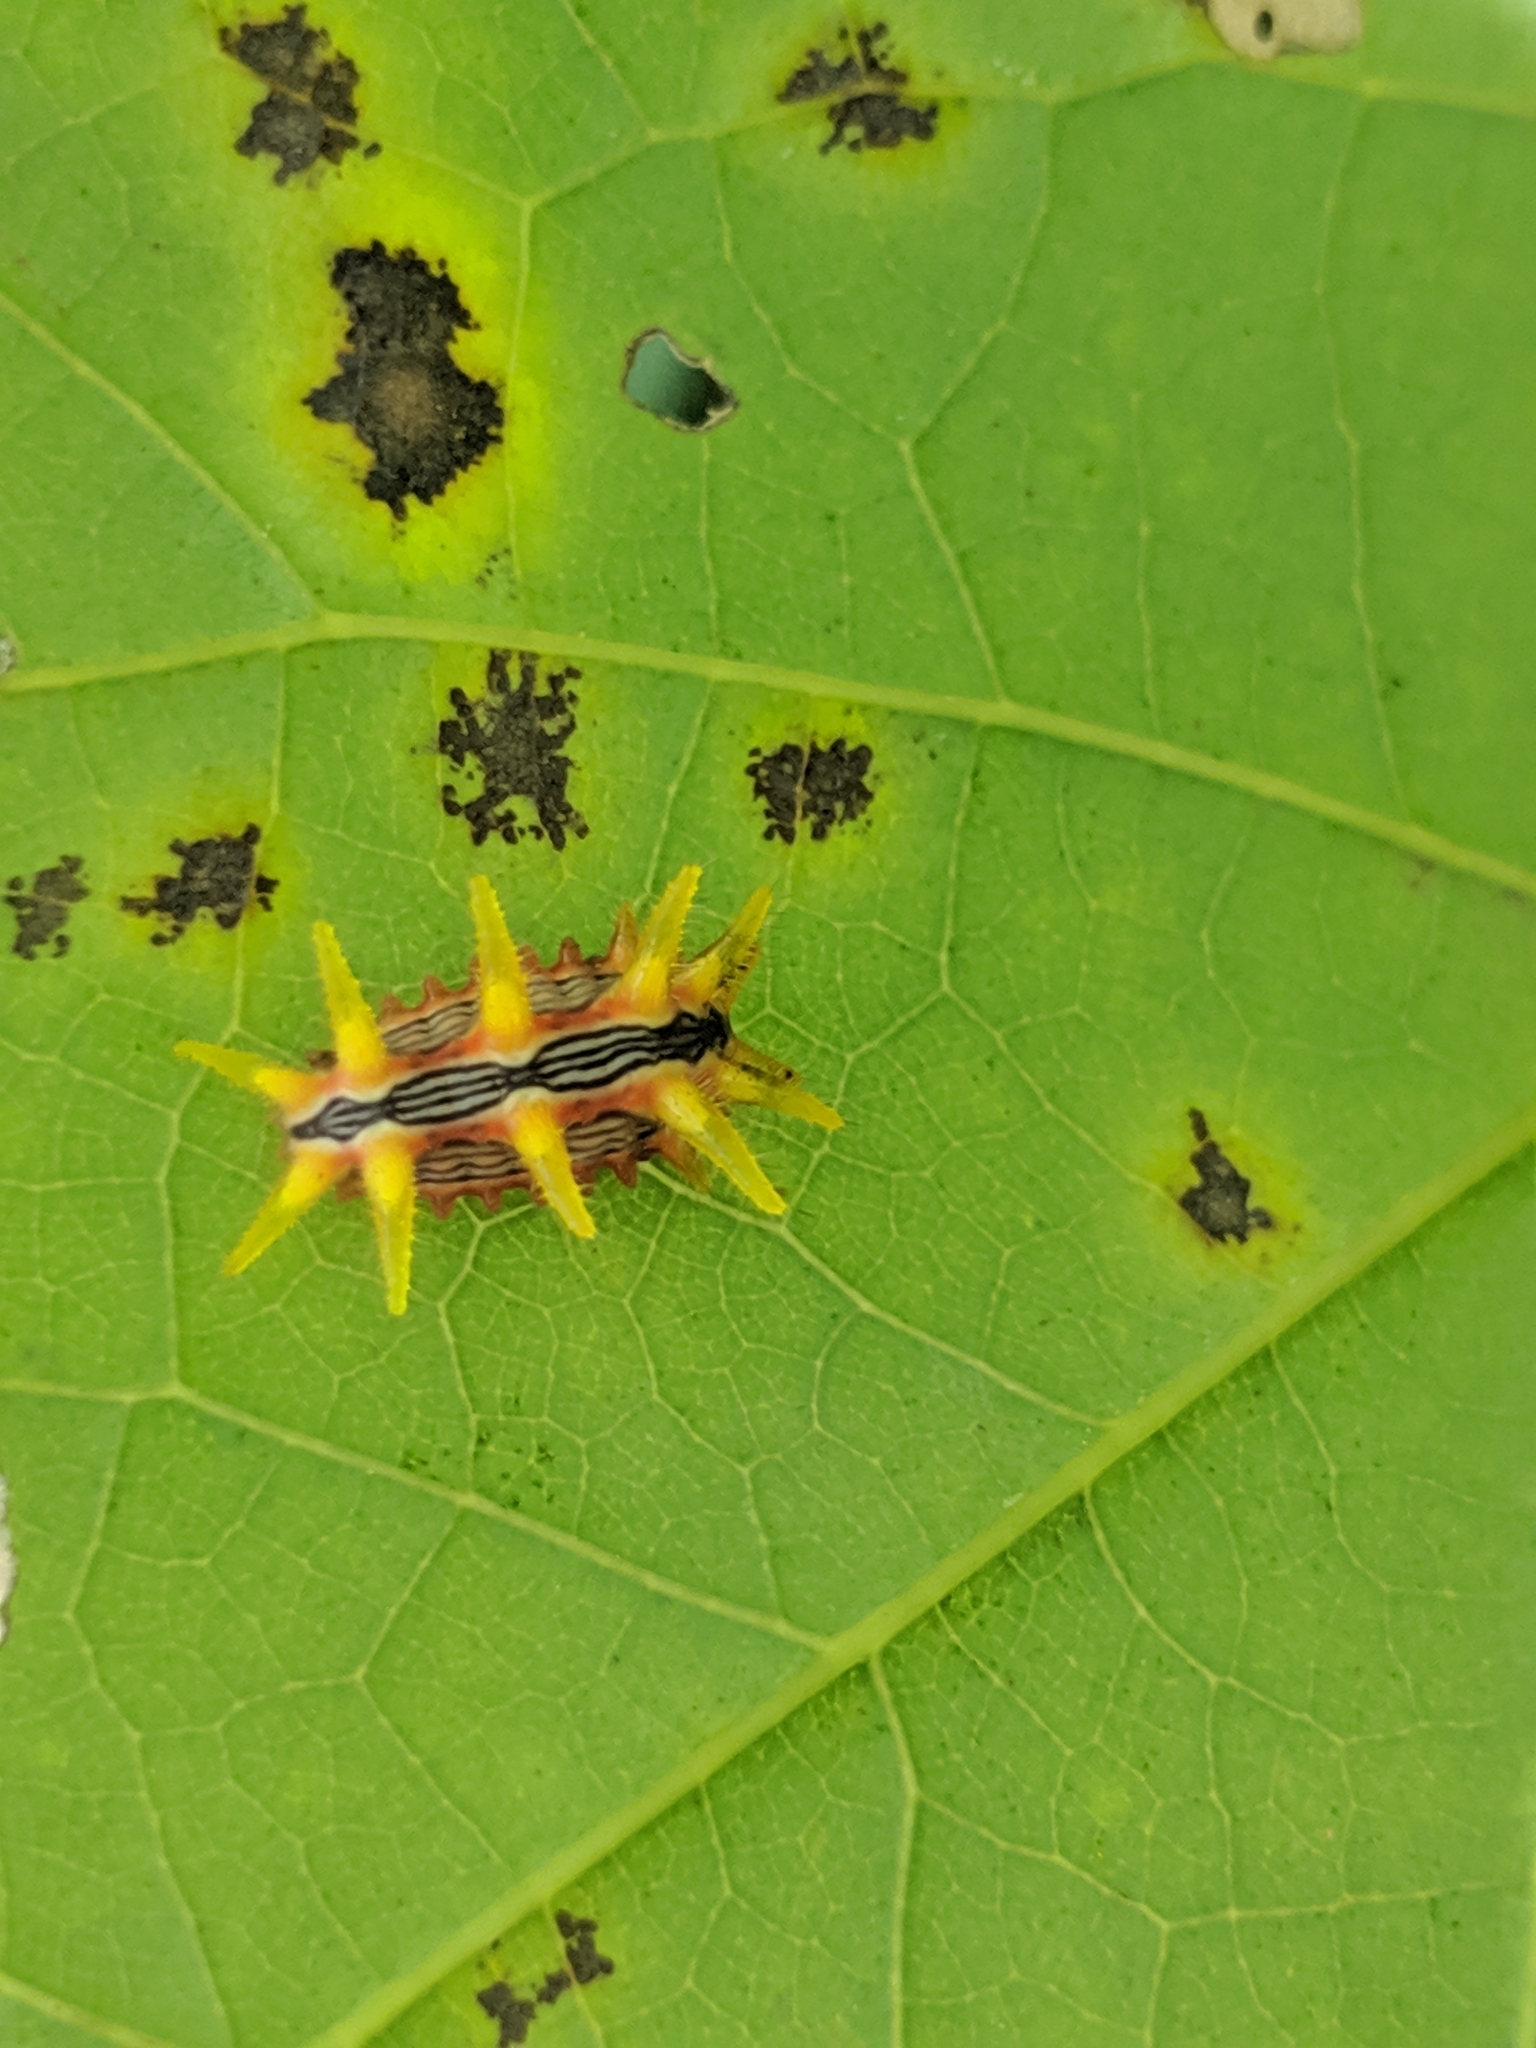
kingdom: Animalia
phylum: Arthropoda
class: Insecta
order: Lepidoptera
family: Limacodidae
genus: Parasa
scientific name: Parasa indetermina
